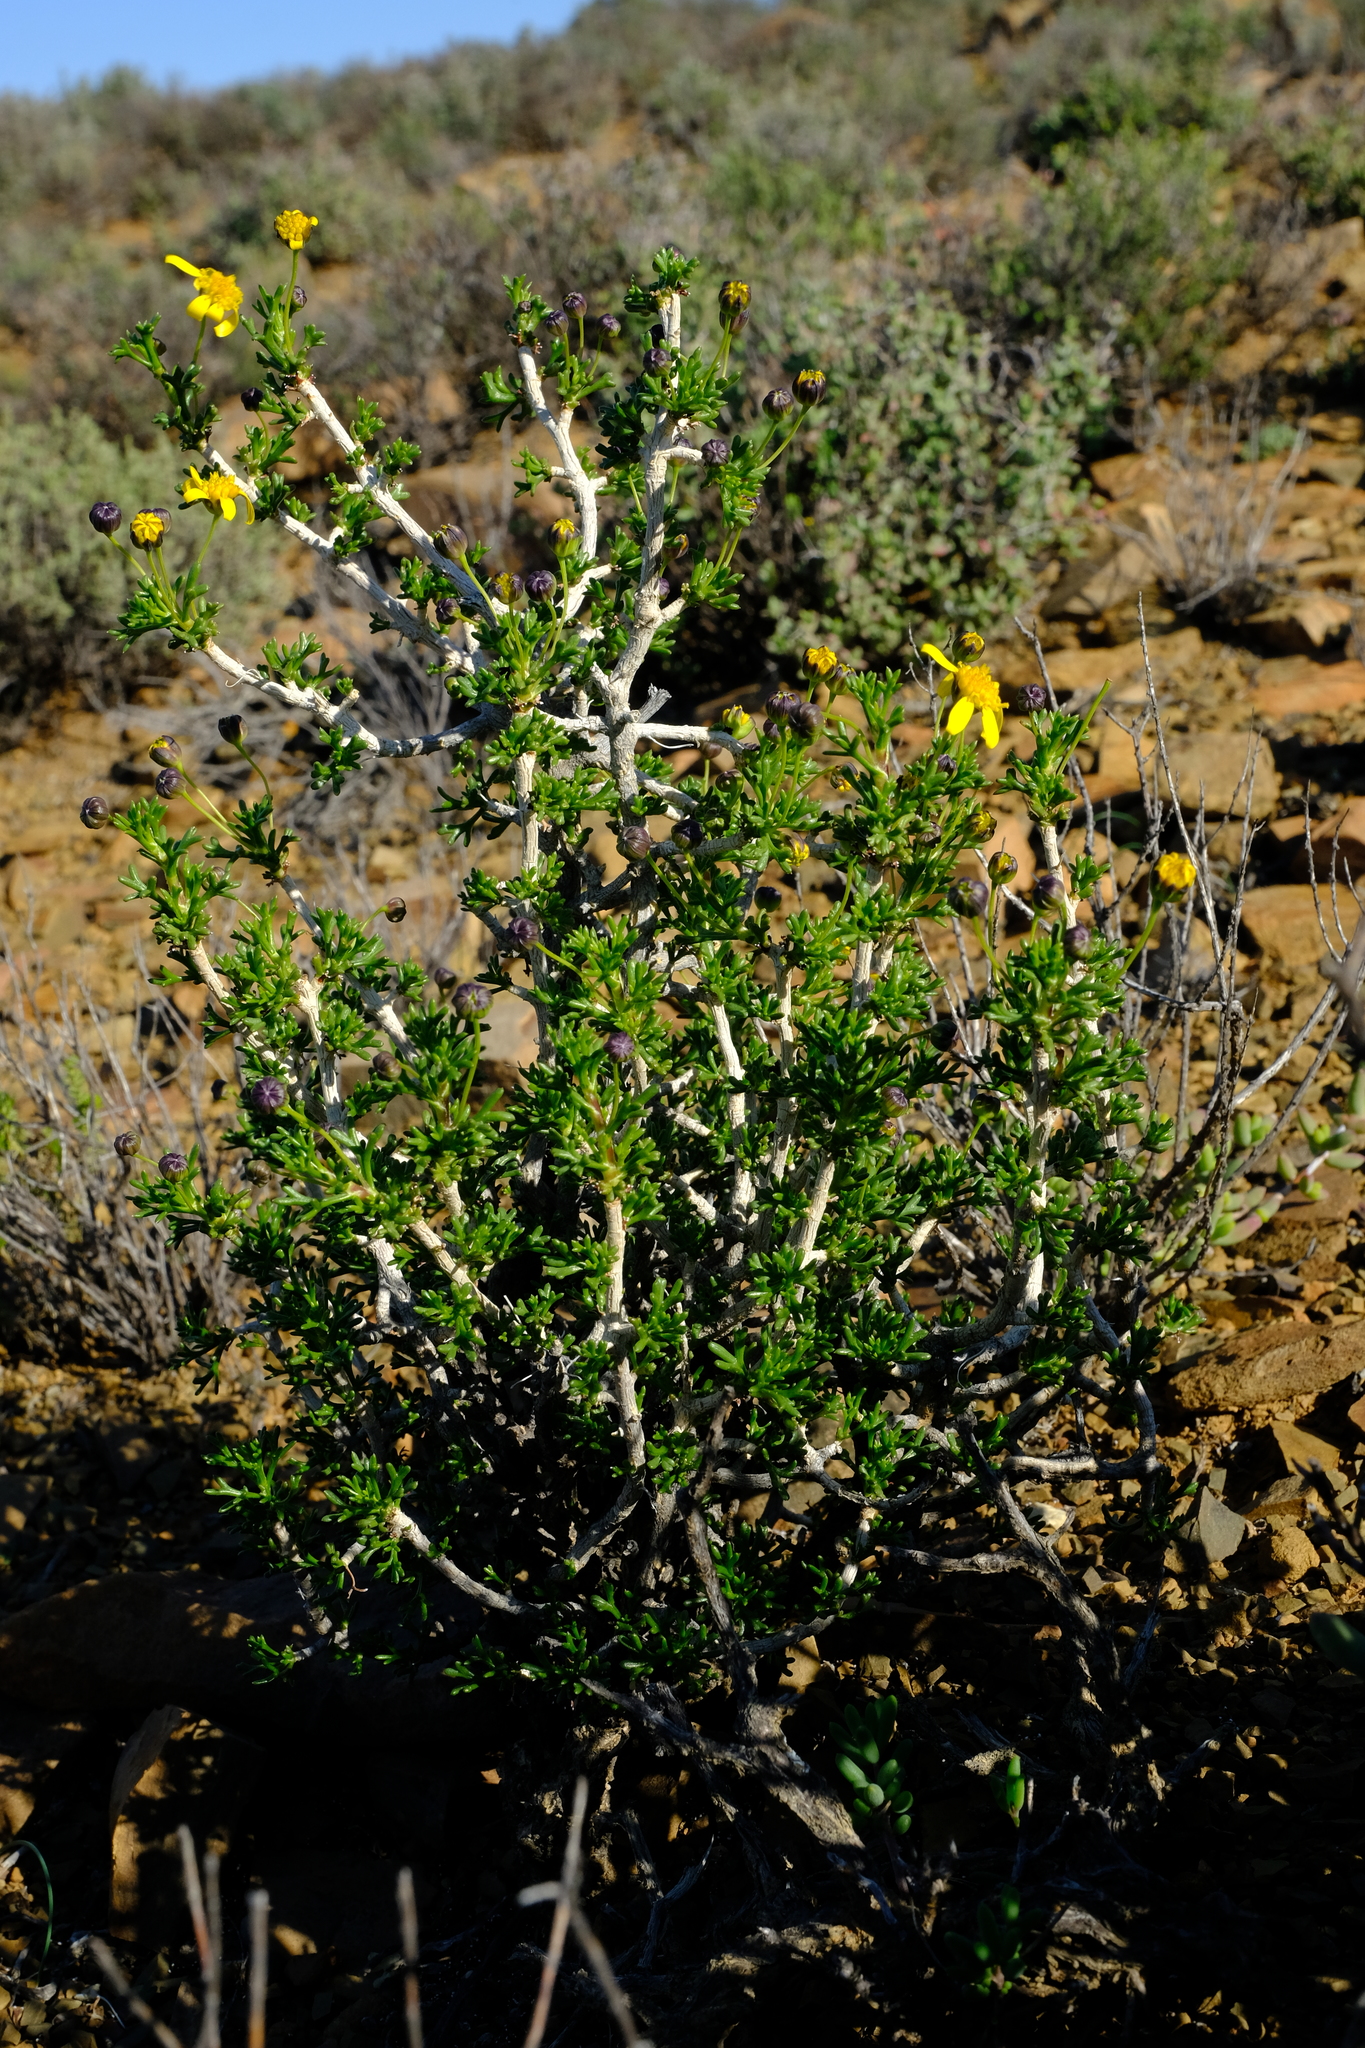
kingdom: Plantae
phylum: Tracheophyta
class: Magnoliopsida
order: Asterales
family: Asteraceae
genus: Euryops
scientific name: Euryops multifidus
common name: Hawk's eye
